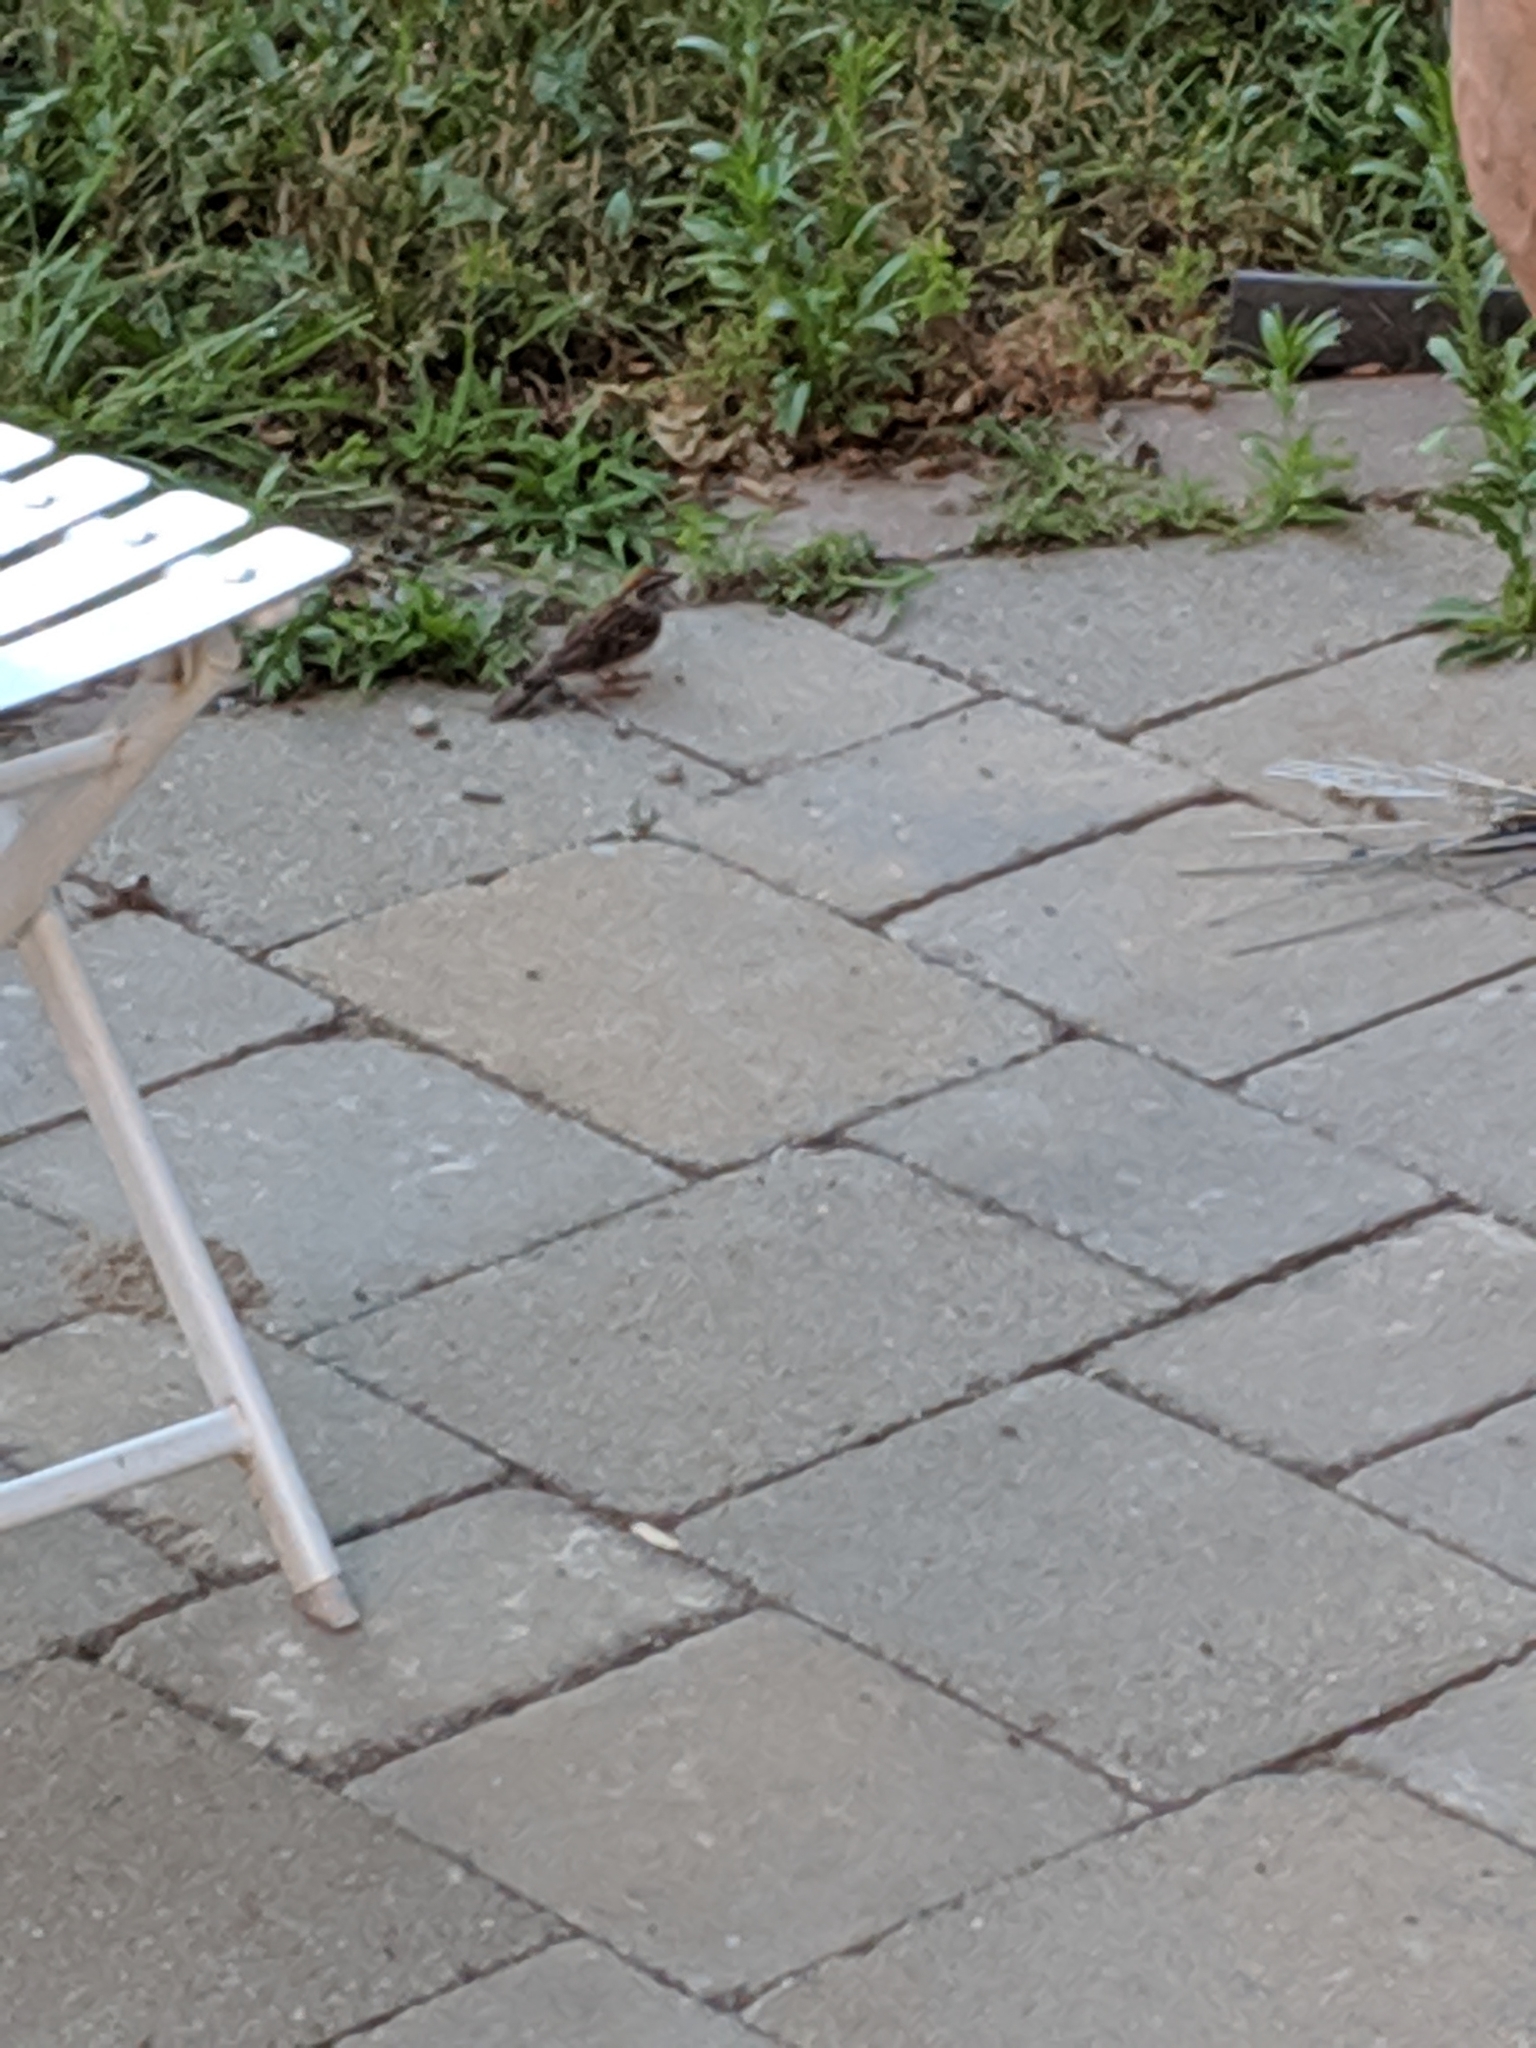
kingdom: Animalia
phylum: Chordata
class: Aves
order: Passeriformes
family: Passerellidae
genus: Spizella
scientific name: Spizella passerina
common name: Chipping sparrow
